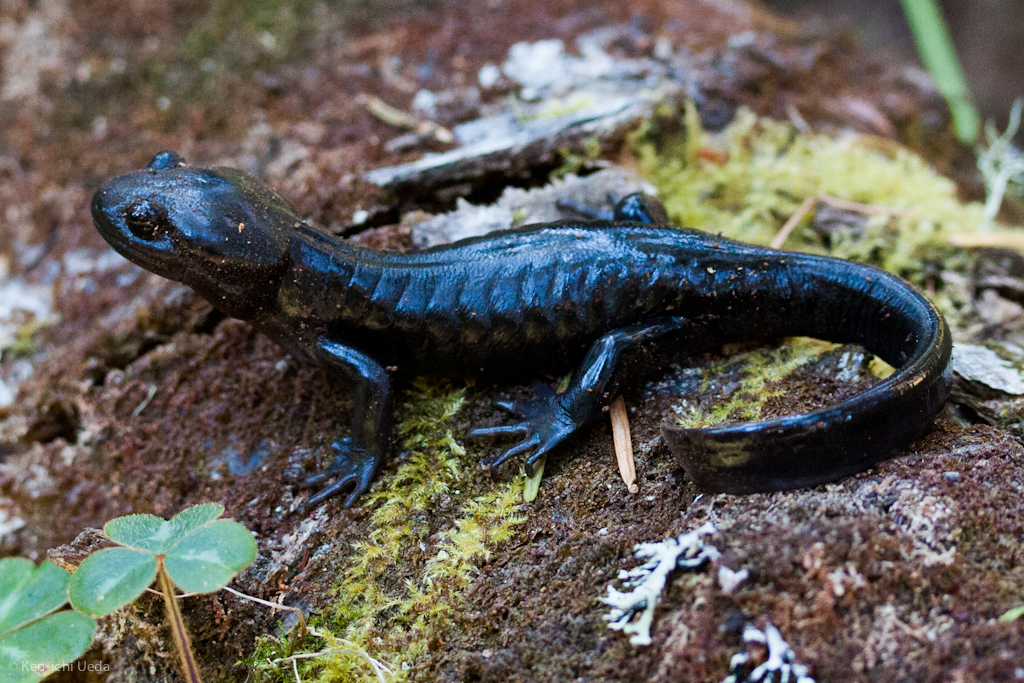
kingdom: Animalia
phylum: Chordata
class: Amphibia
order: Caudata
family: Ambystomatidae
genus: Ambystoma
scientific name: Ambystoma gracile
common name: Northwestern salamander
